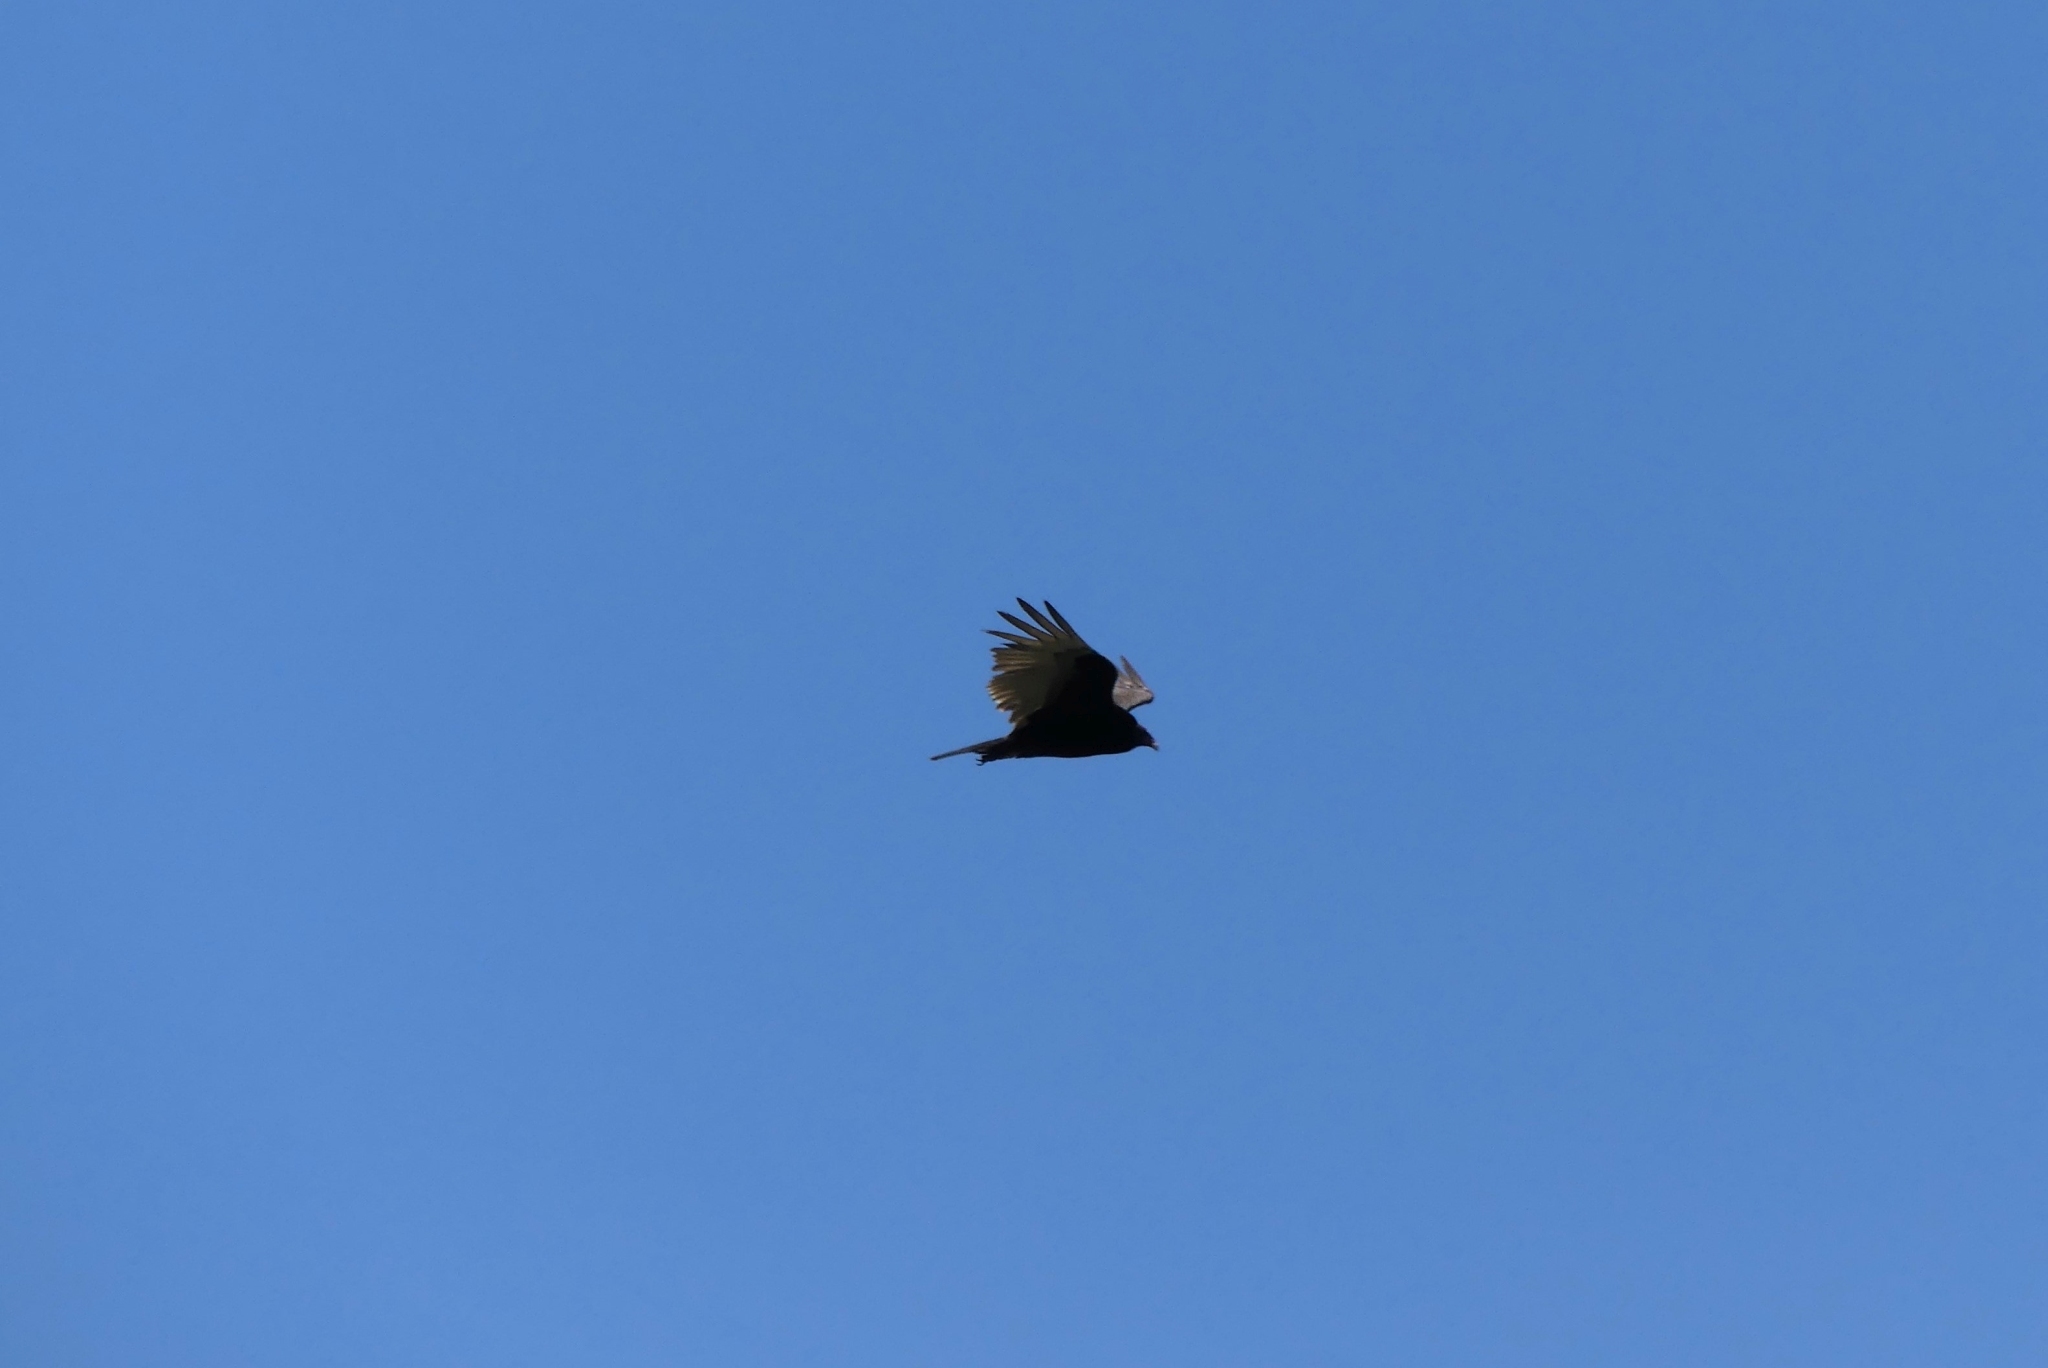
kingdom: Animalia
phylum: Chordata
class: Aves
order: Accipitriformes
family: Cathartidae
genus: Cathartes
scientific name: Cathartes aura
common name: Turkey vulture
